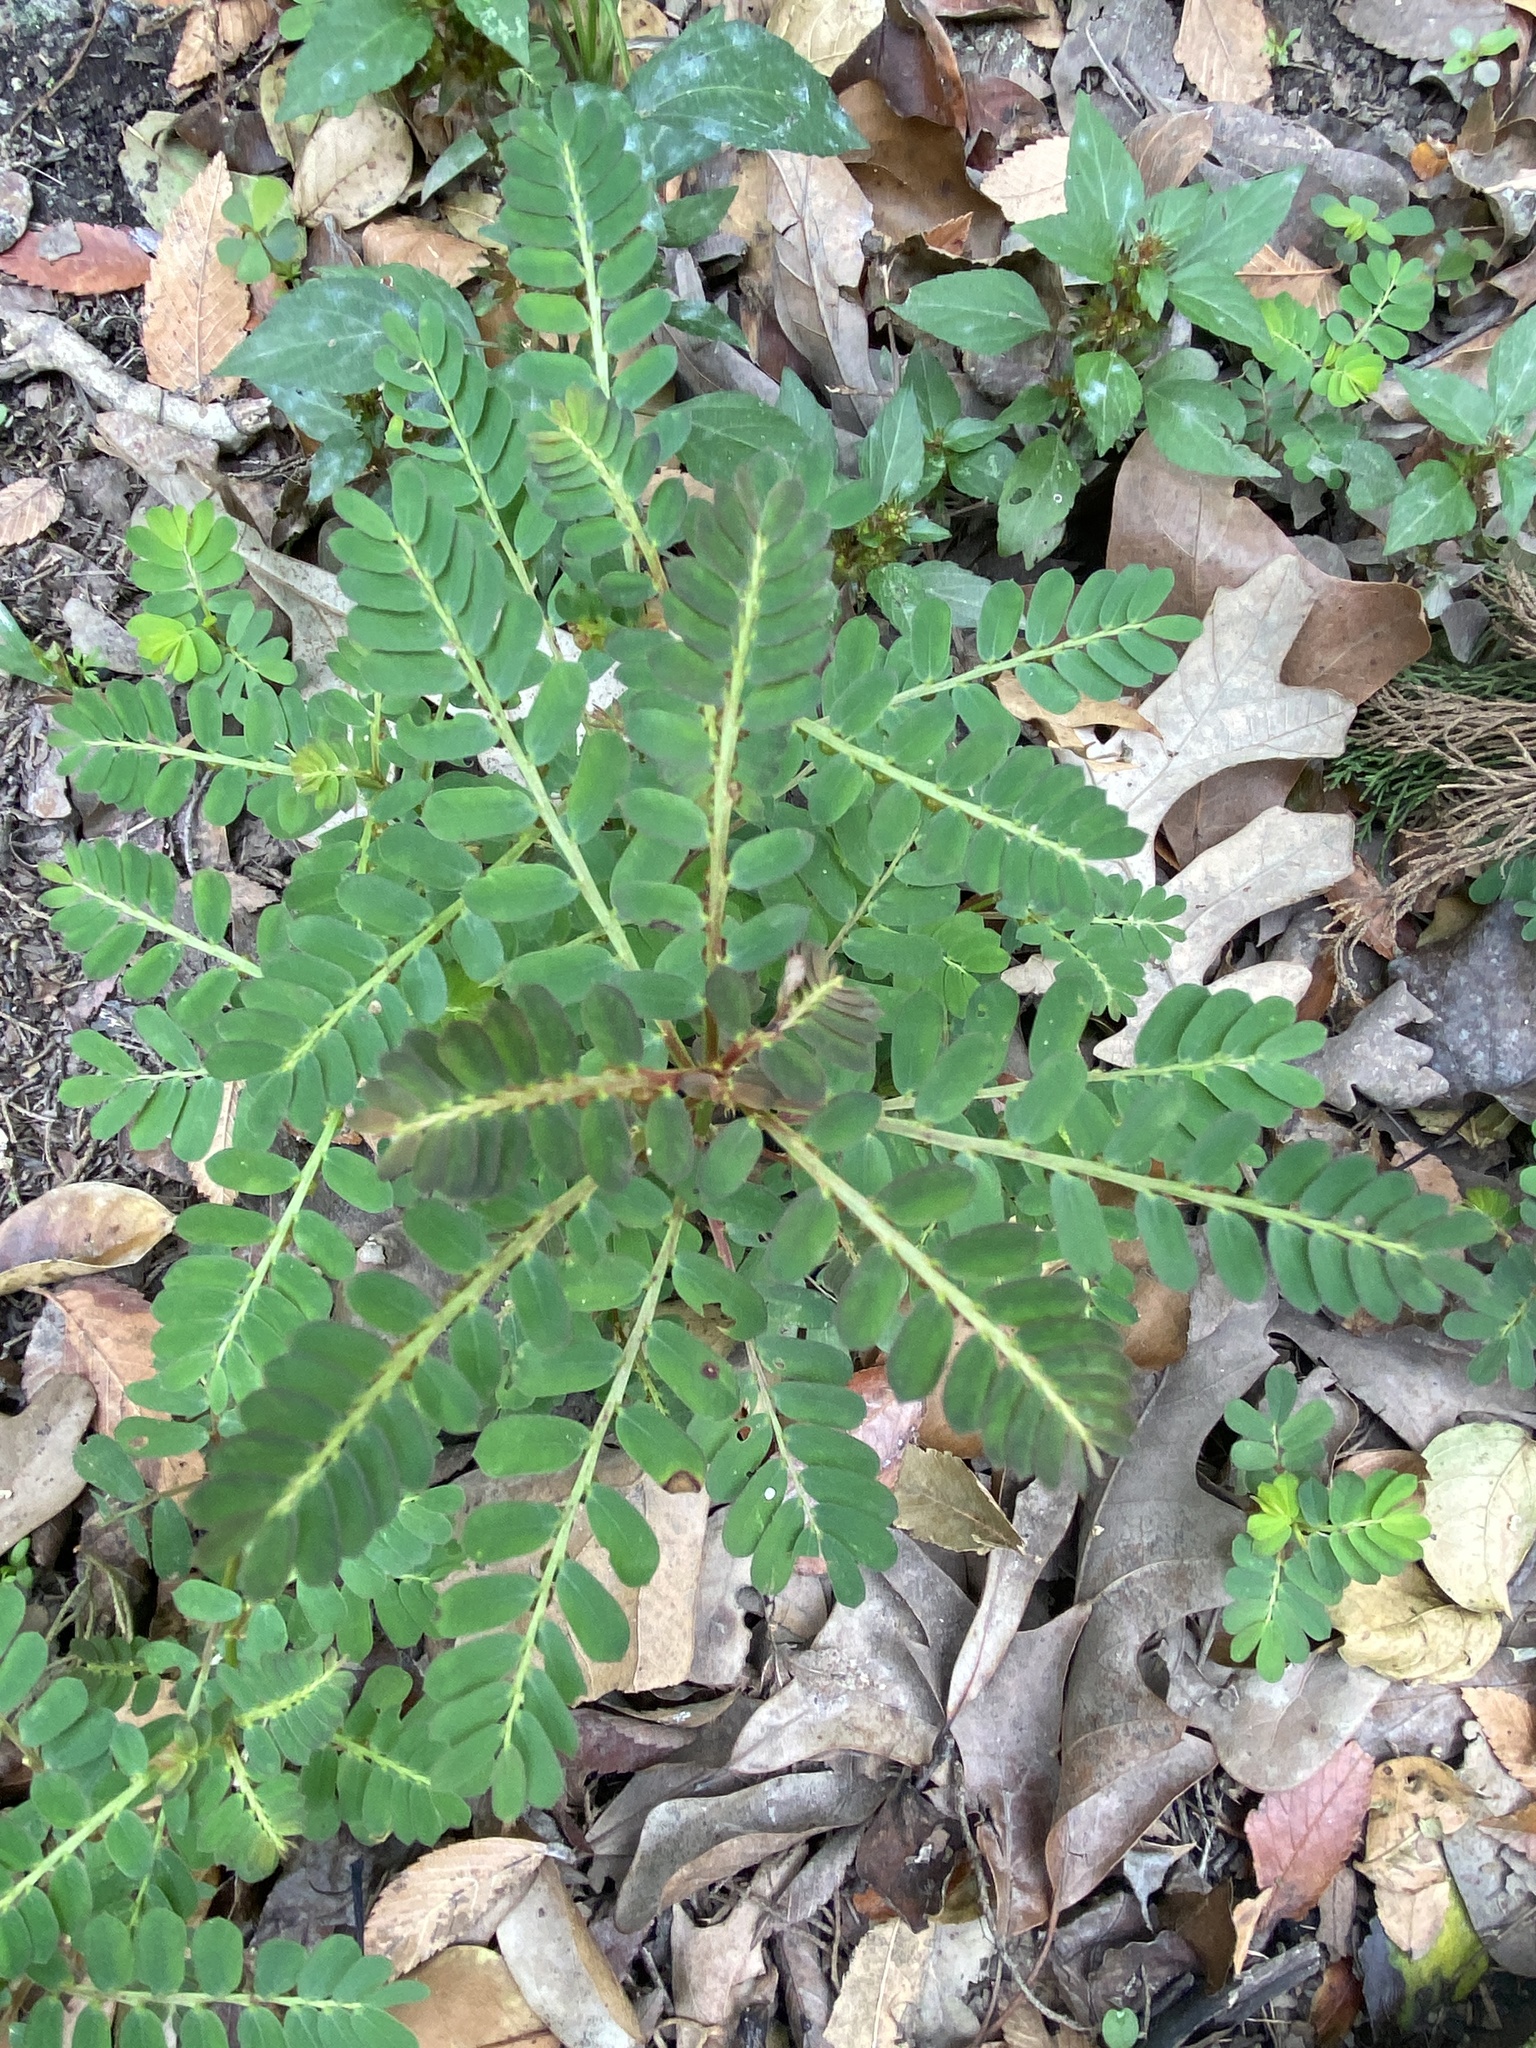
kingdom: Plantae
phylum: Tracheophyta
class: Magnoliopsida
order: Malpighiales
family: Phyllanthaceae
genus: Phyllanthus
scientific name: Phyllanthus urinaria
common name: Chamber bitter
